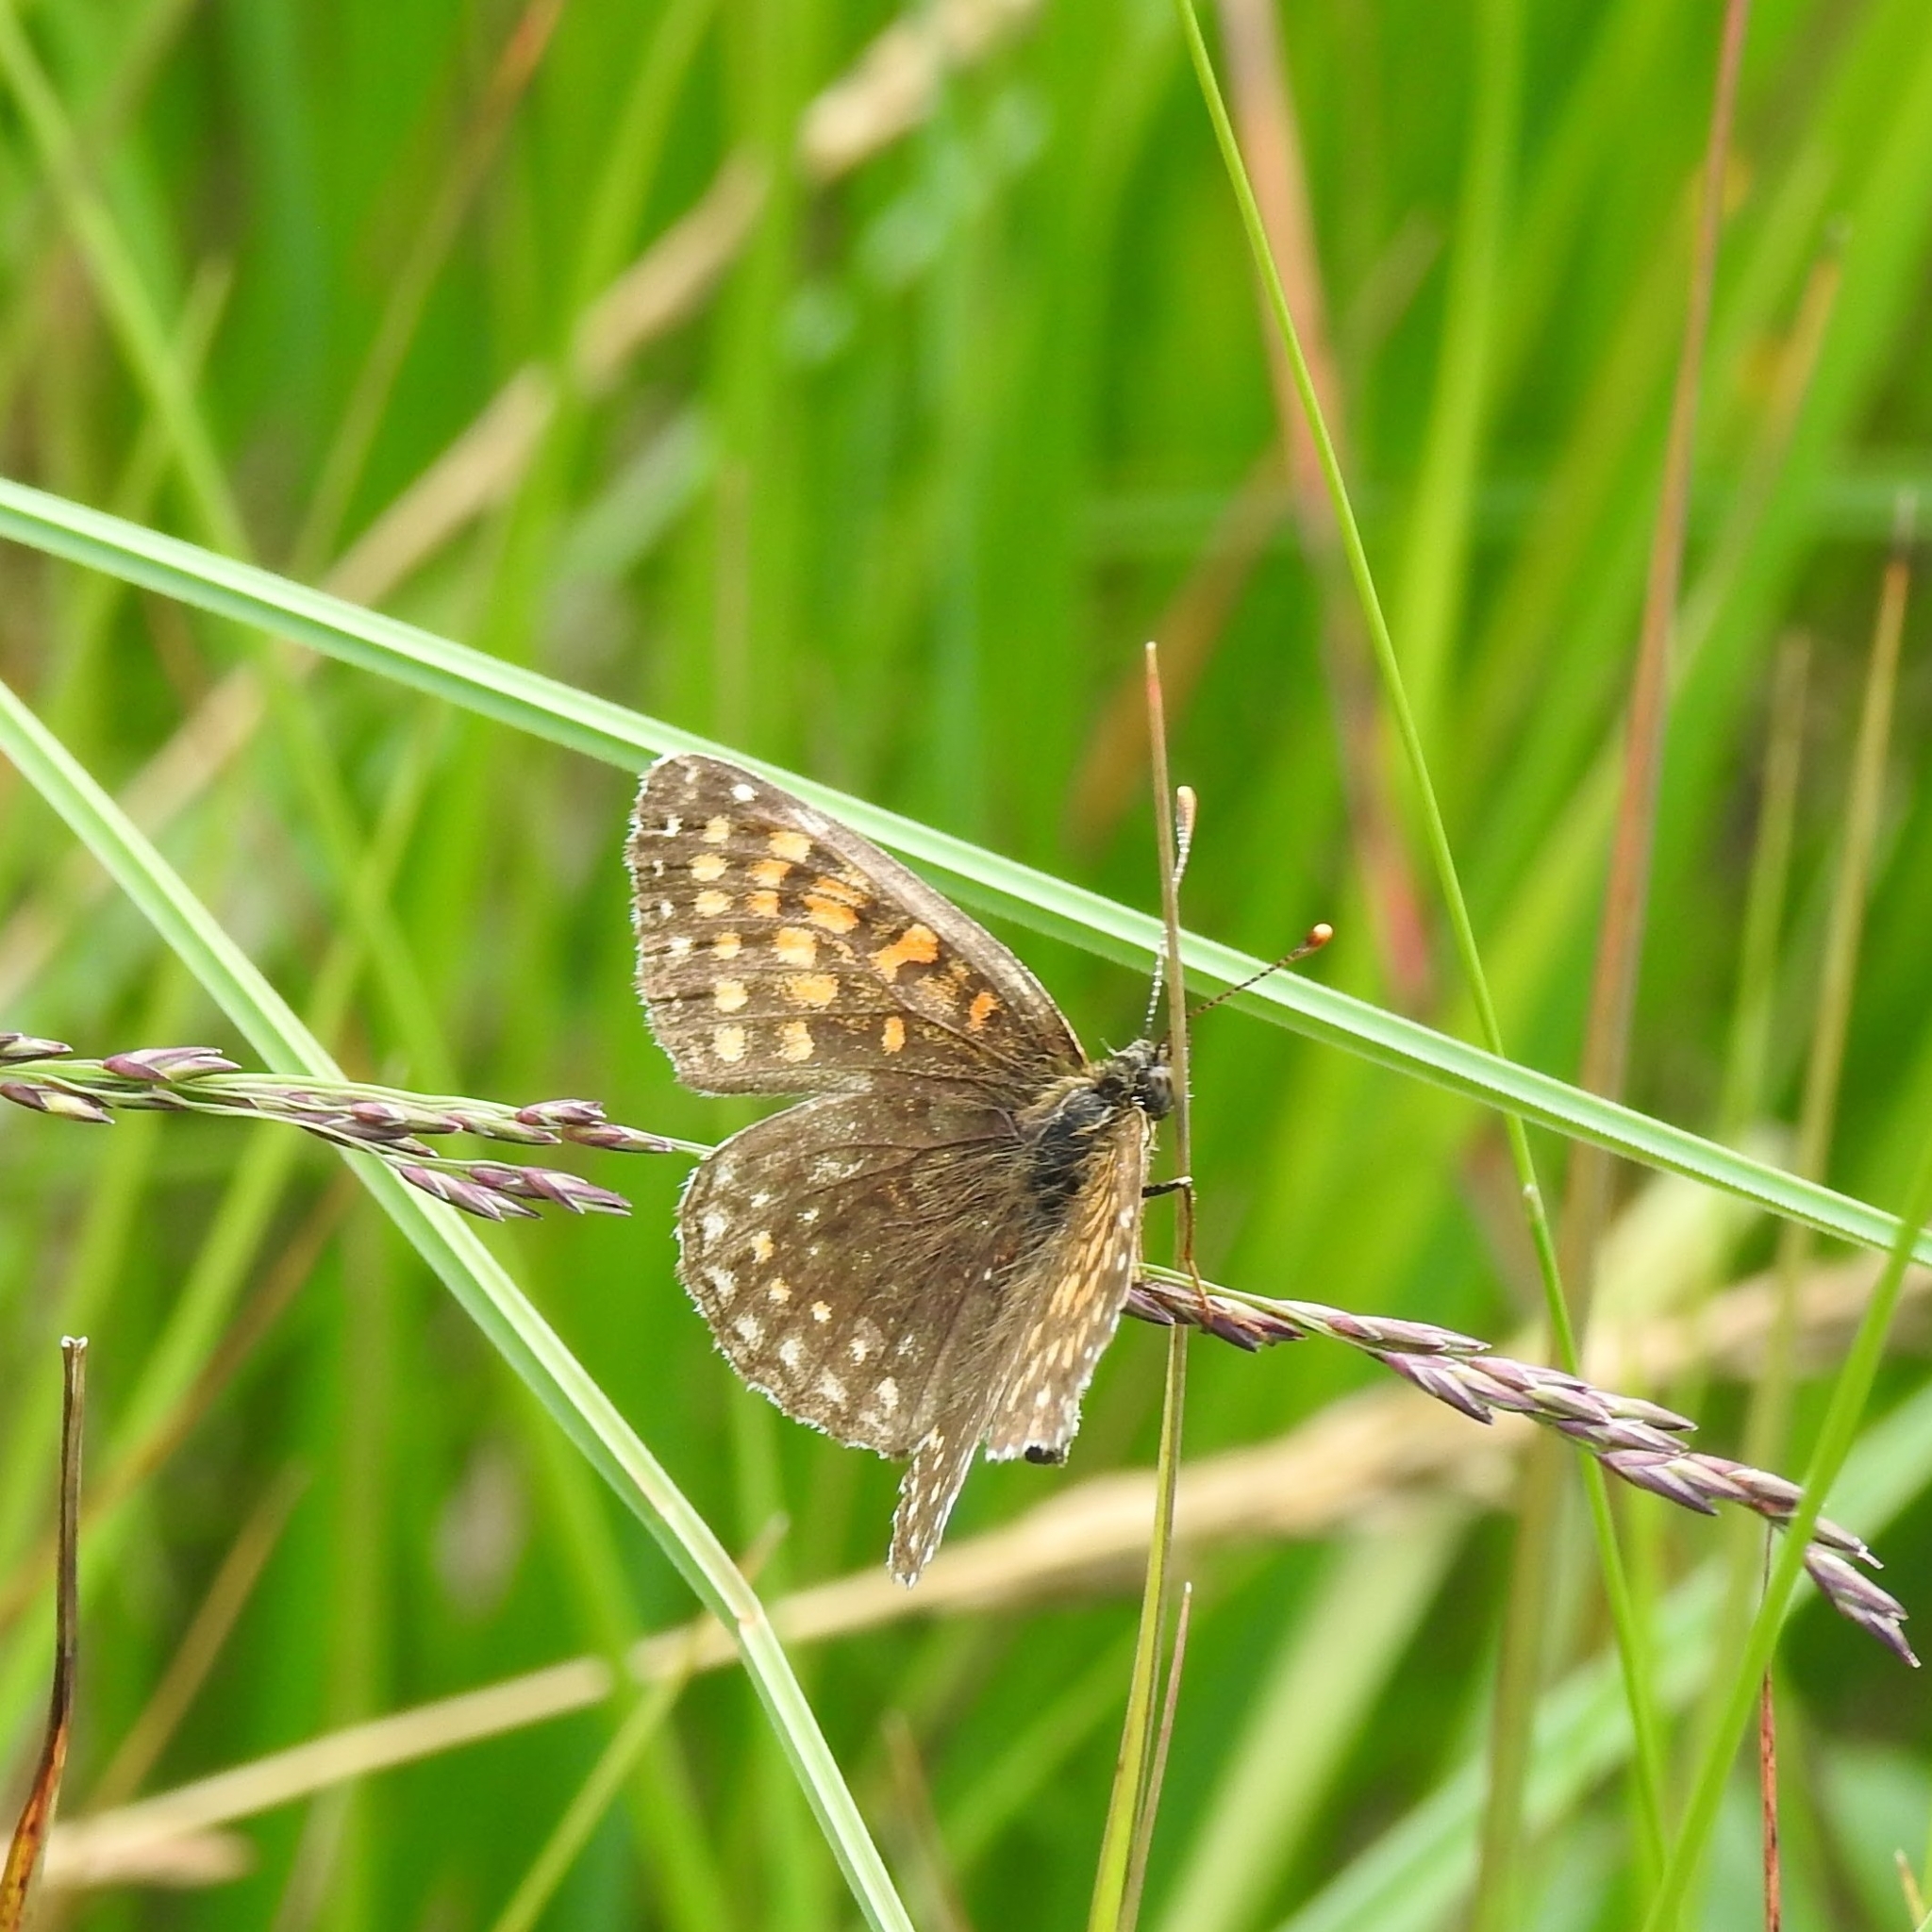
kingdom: Animalia
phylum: Arthropoda
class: Insecta
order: Lepidoptera
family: Nymphalidae
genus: Melitaea
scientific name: Melitaea diamina
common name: False heath fritillary
